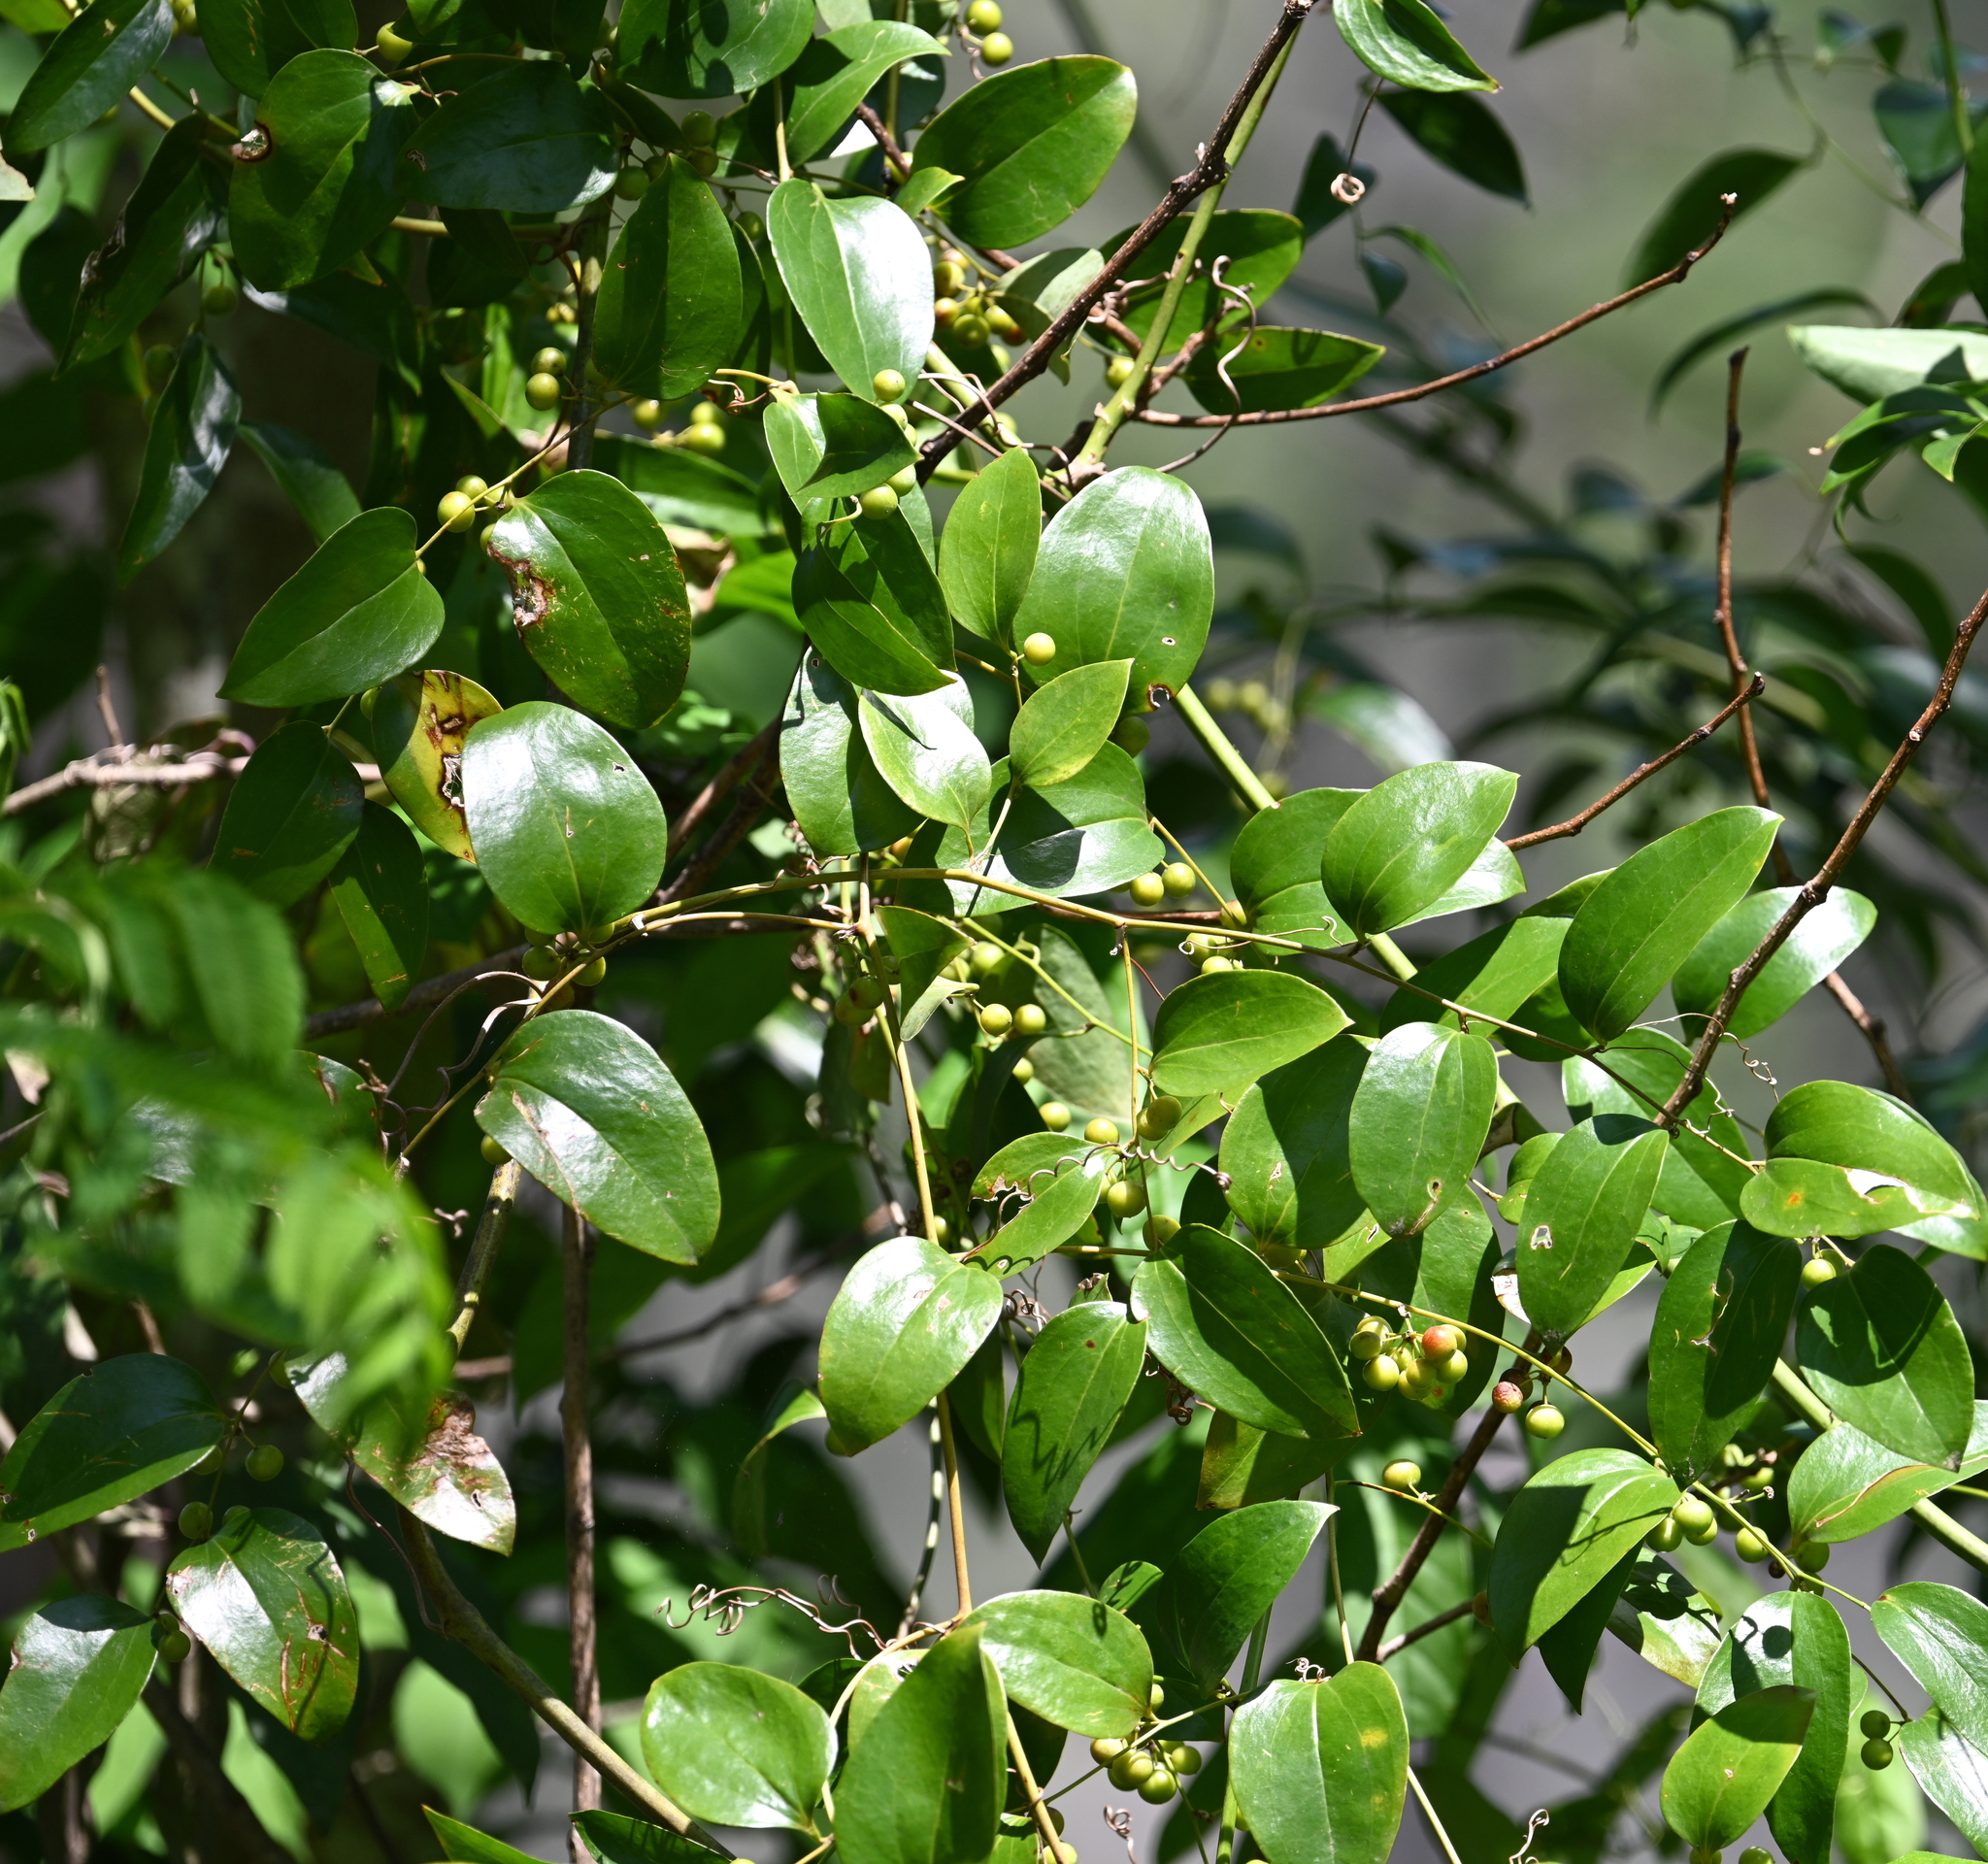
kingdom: Plantae
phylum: Tracheophyta
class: Liliopsida
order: Liliales
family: Smilacaceae
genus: Smilax
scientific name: Smilax maritima
